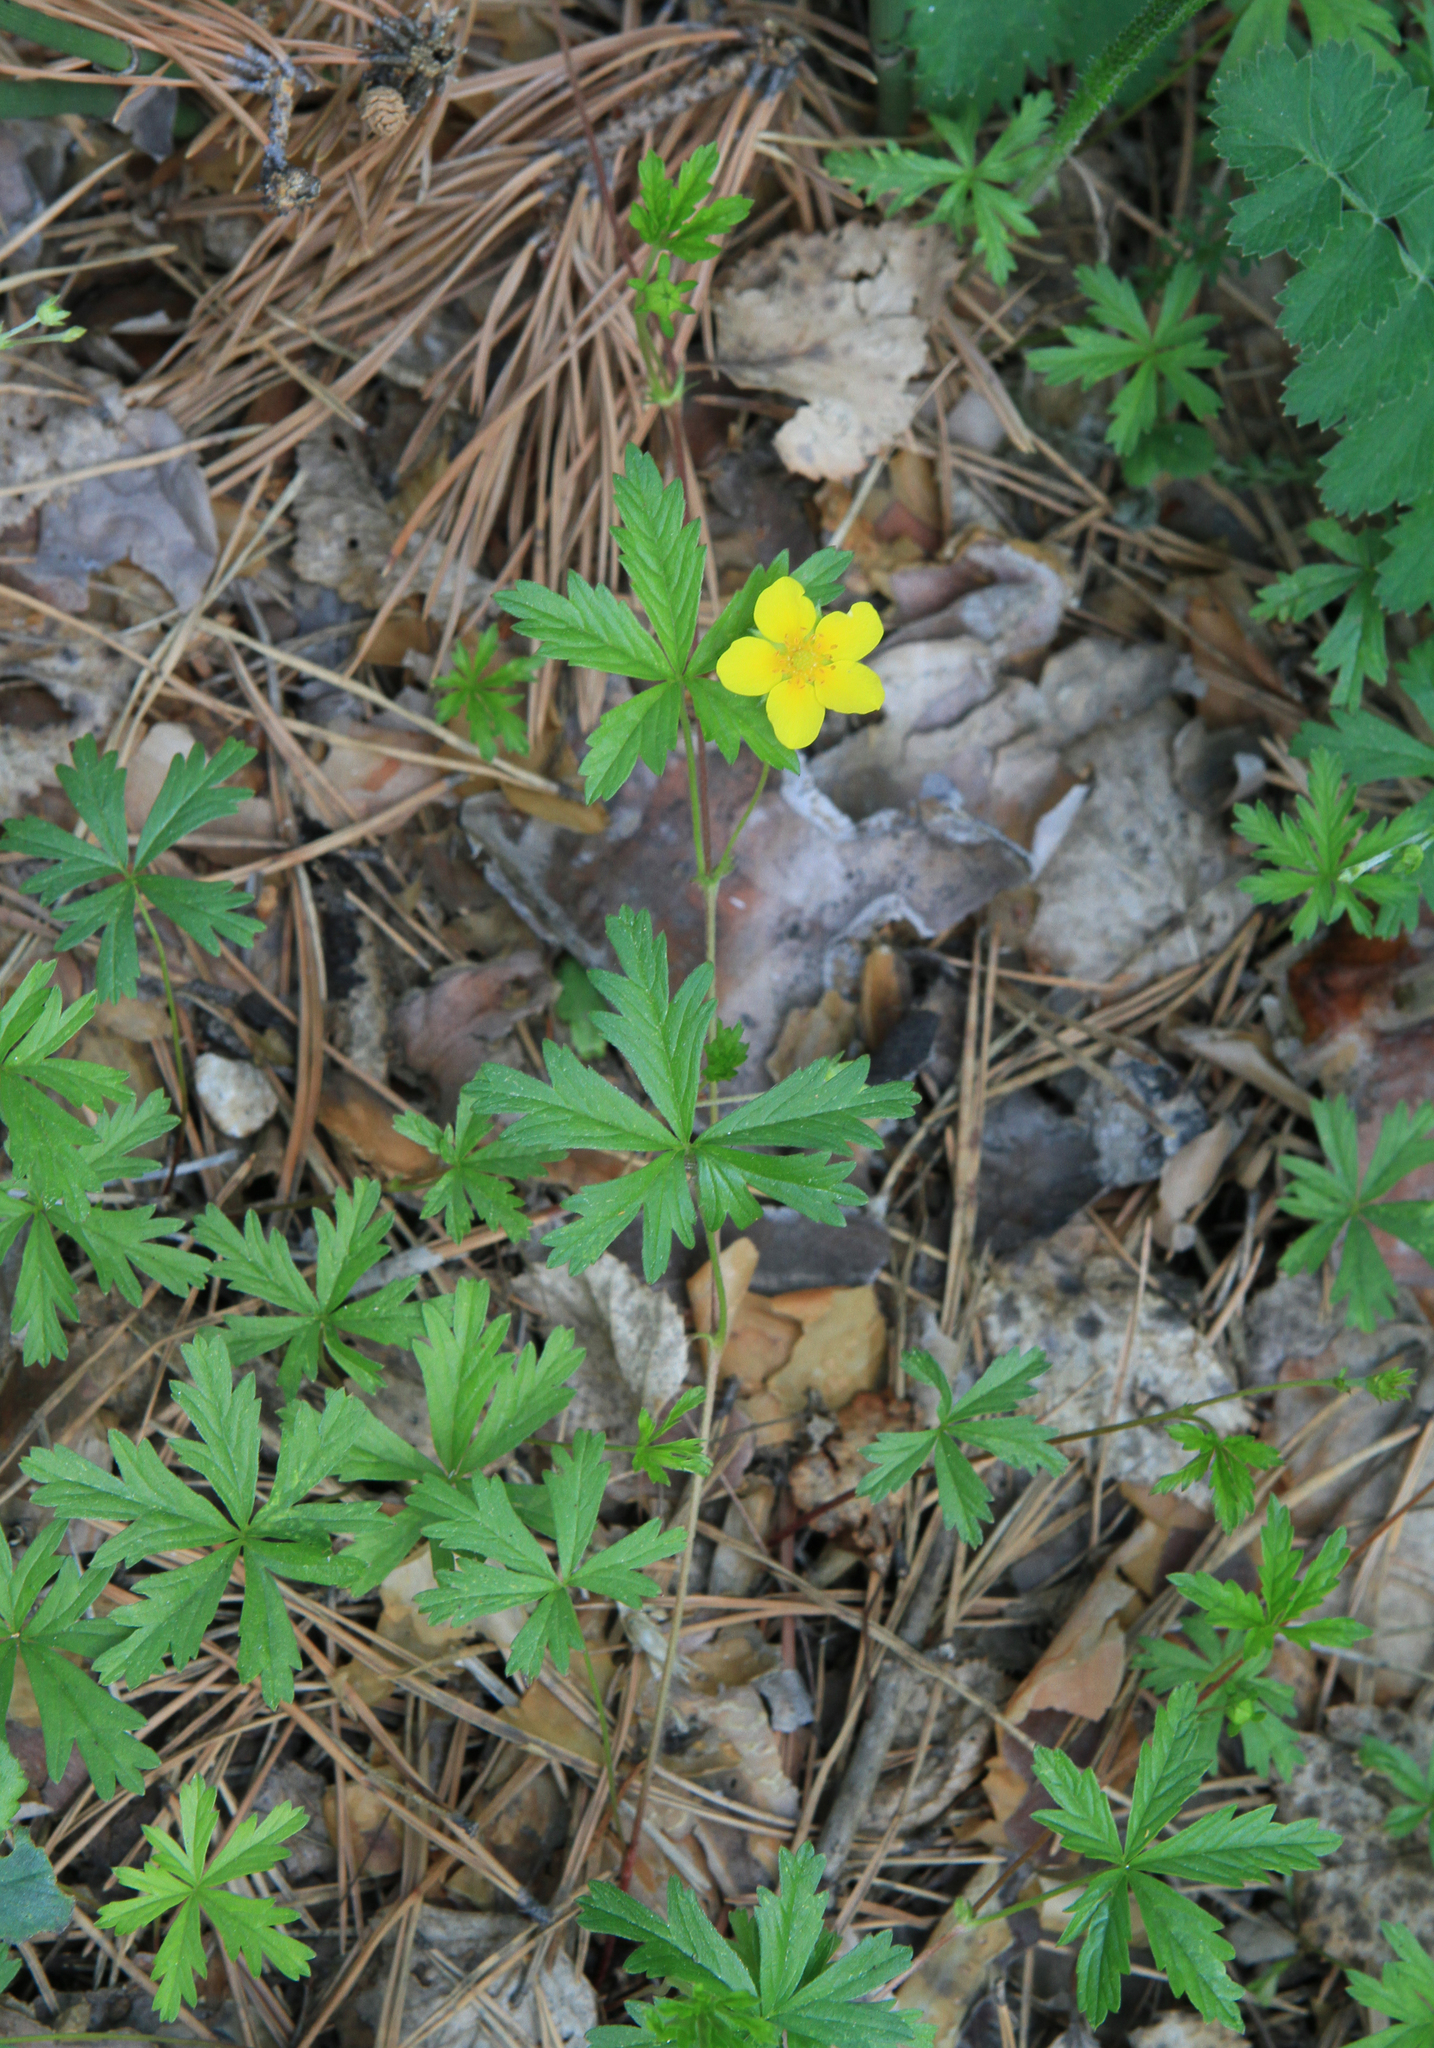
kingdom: Plantae
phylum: Tracheophyta
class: Magnoliopsida
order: Rosales
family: Rosaceae
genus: Potentilla
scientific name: Potentilla flagellaris
